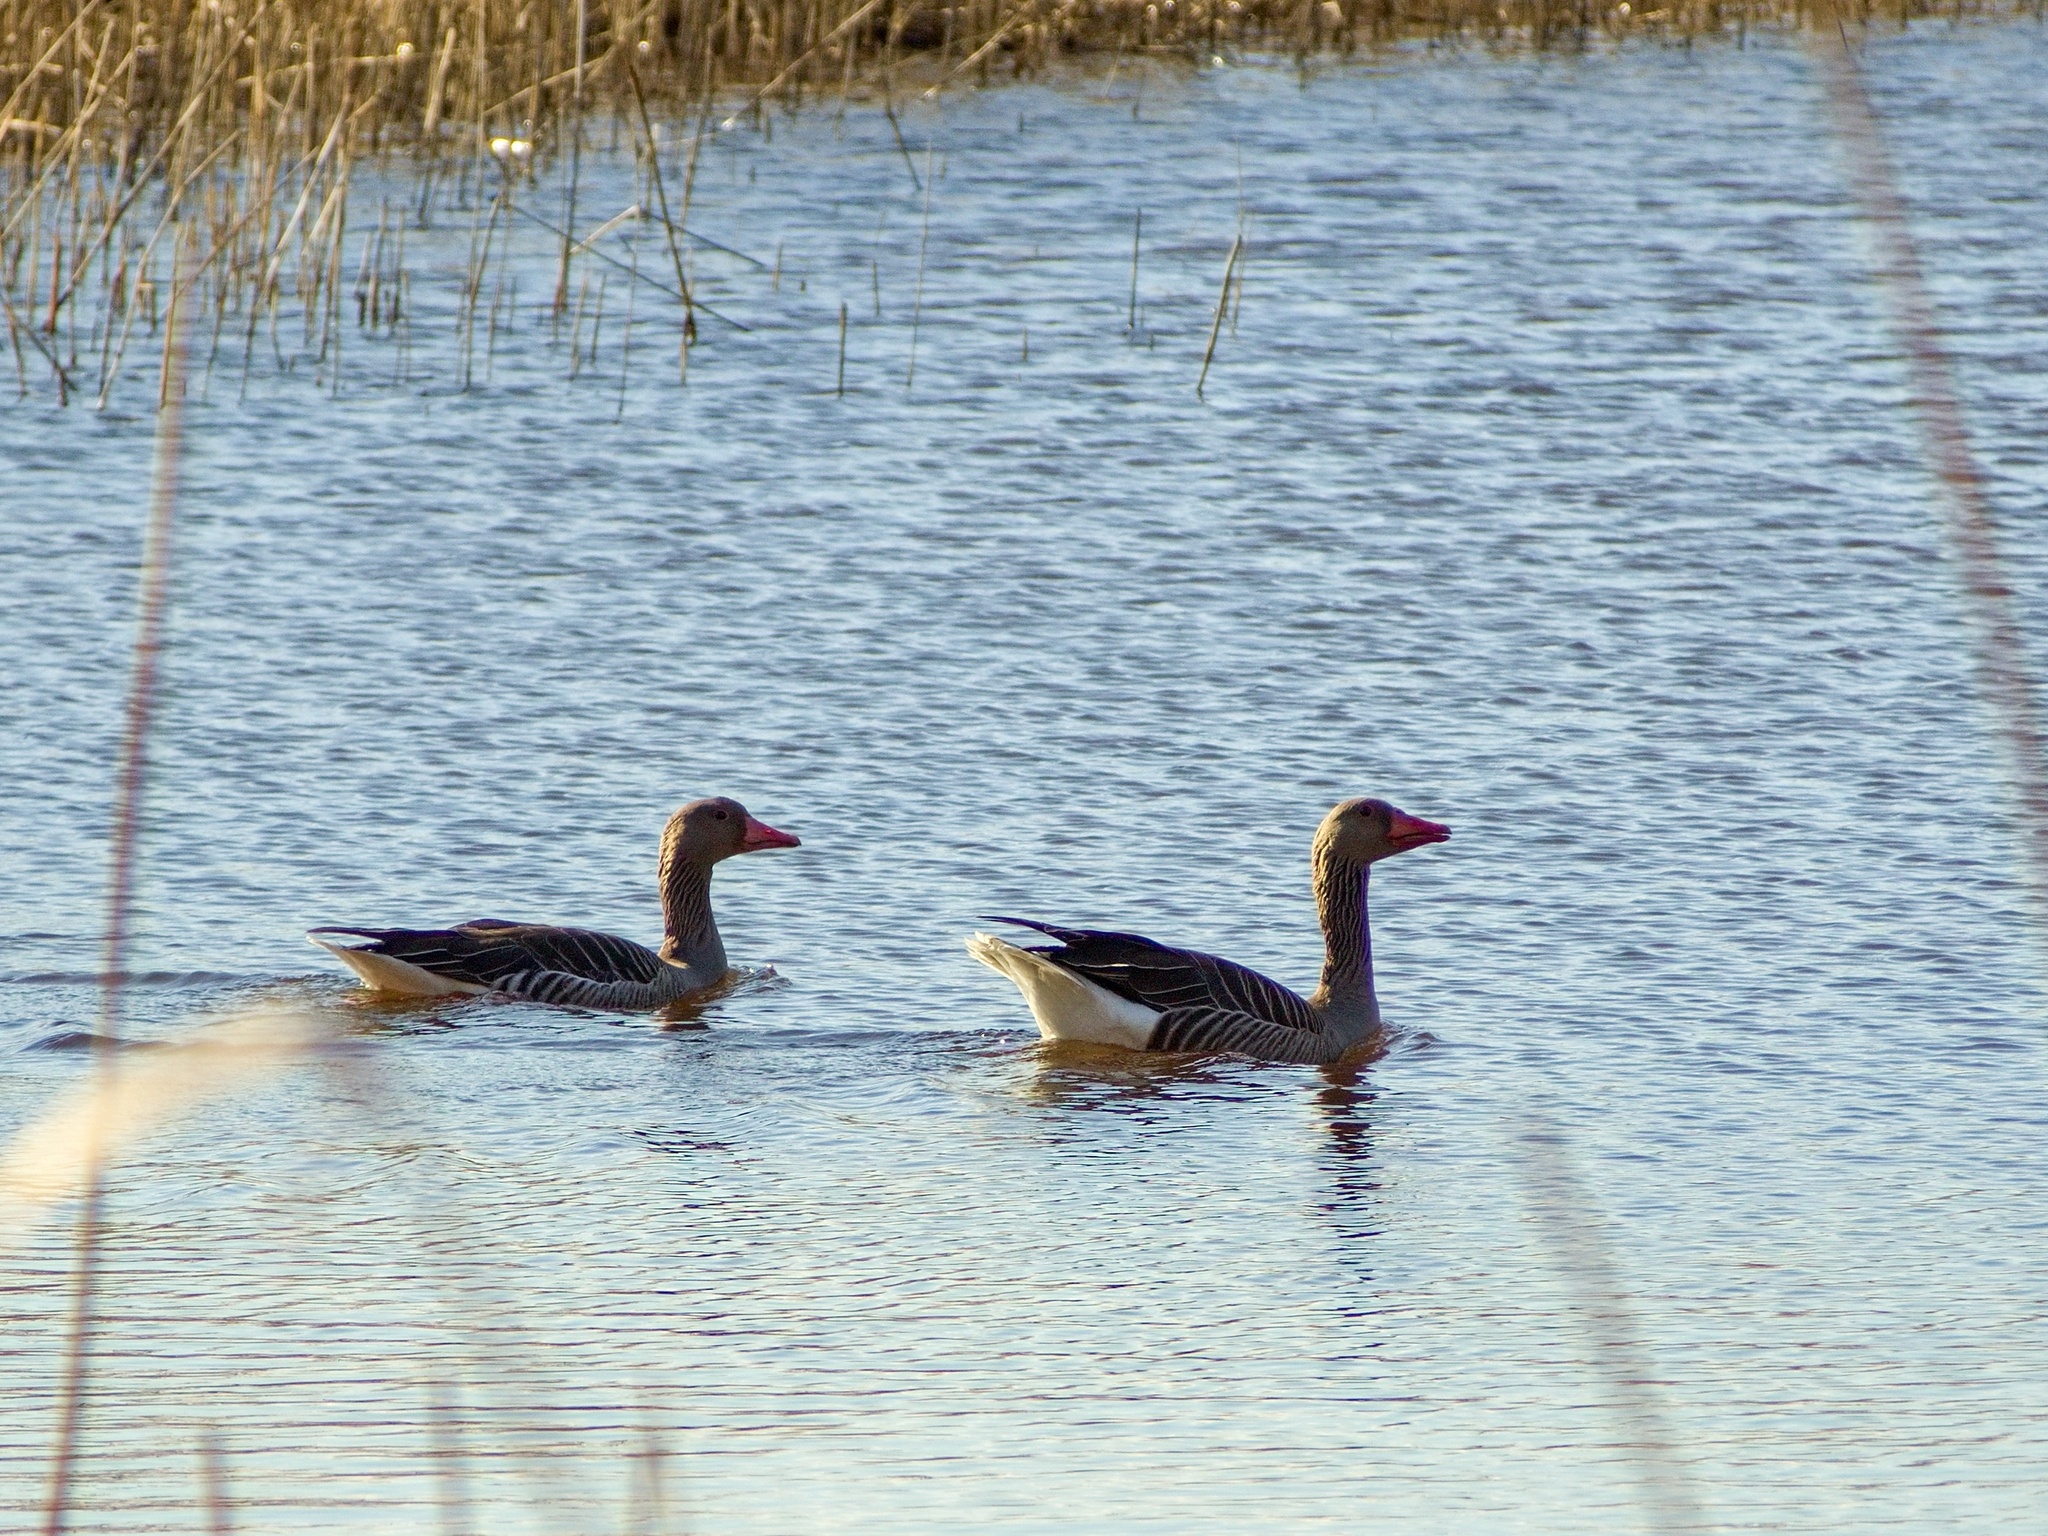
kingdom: Animalia
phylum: Chordata
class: Aves
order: Anseriformes
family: Anatidae
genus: Anser
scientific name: Anser anser
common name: Greylag goose
